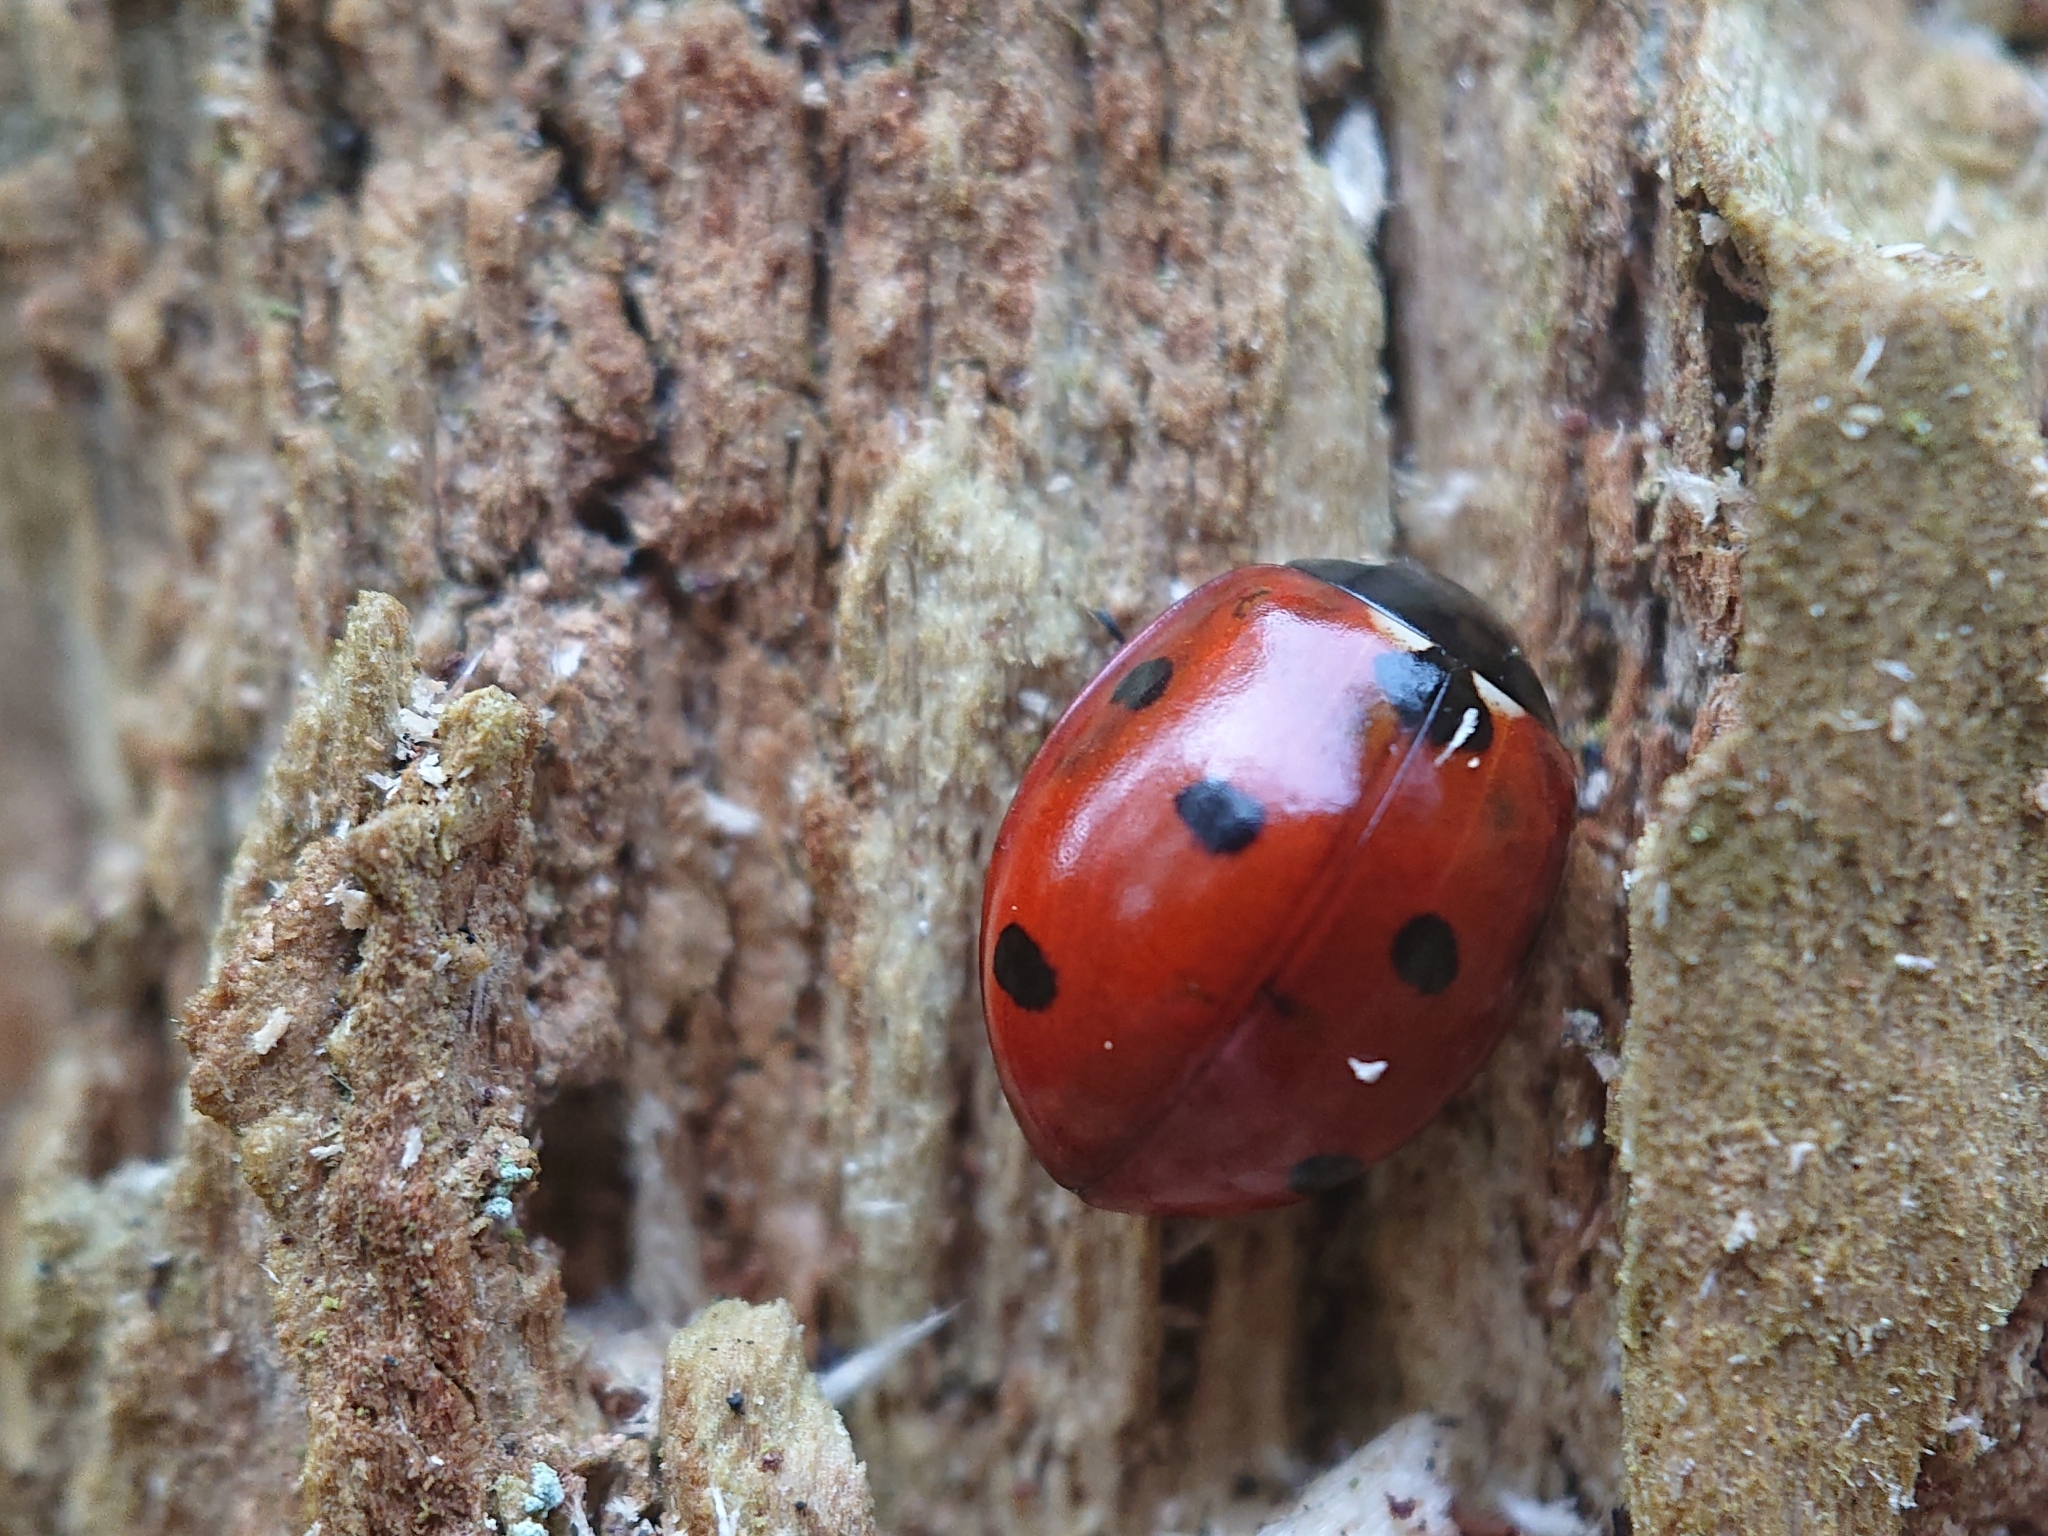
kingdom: Animalia
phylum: Arthropoda
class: Insecta
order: Coleoptera
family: Coccinellidae
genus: Coccinella
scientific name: Coccinella septempunctata
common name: Sevenspotted lady beetle
